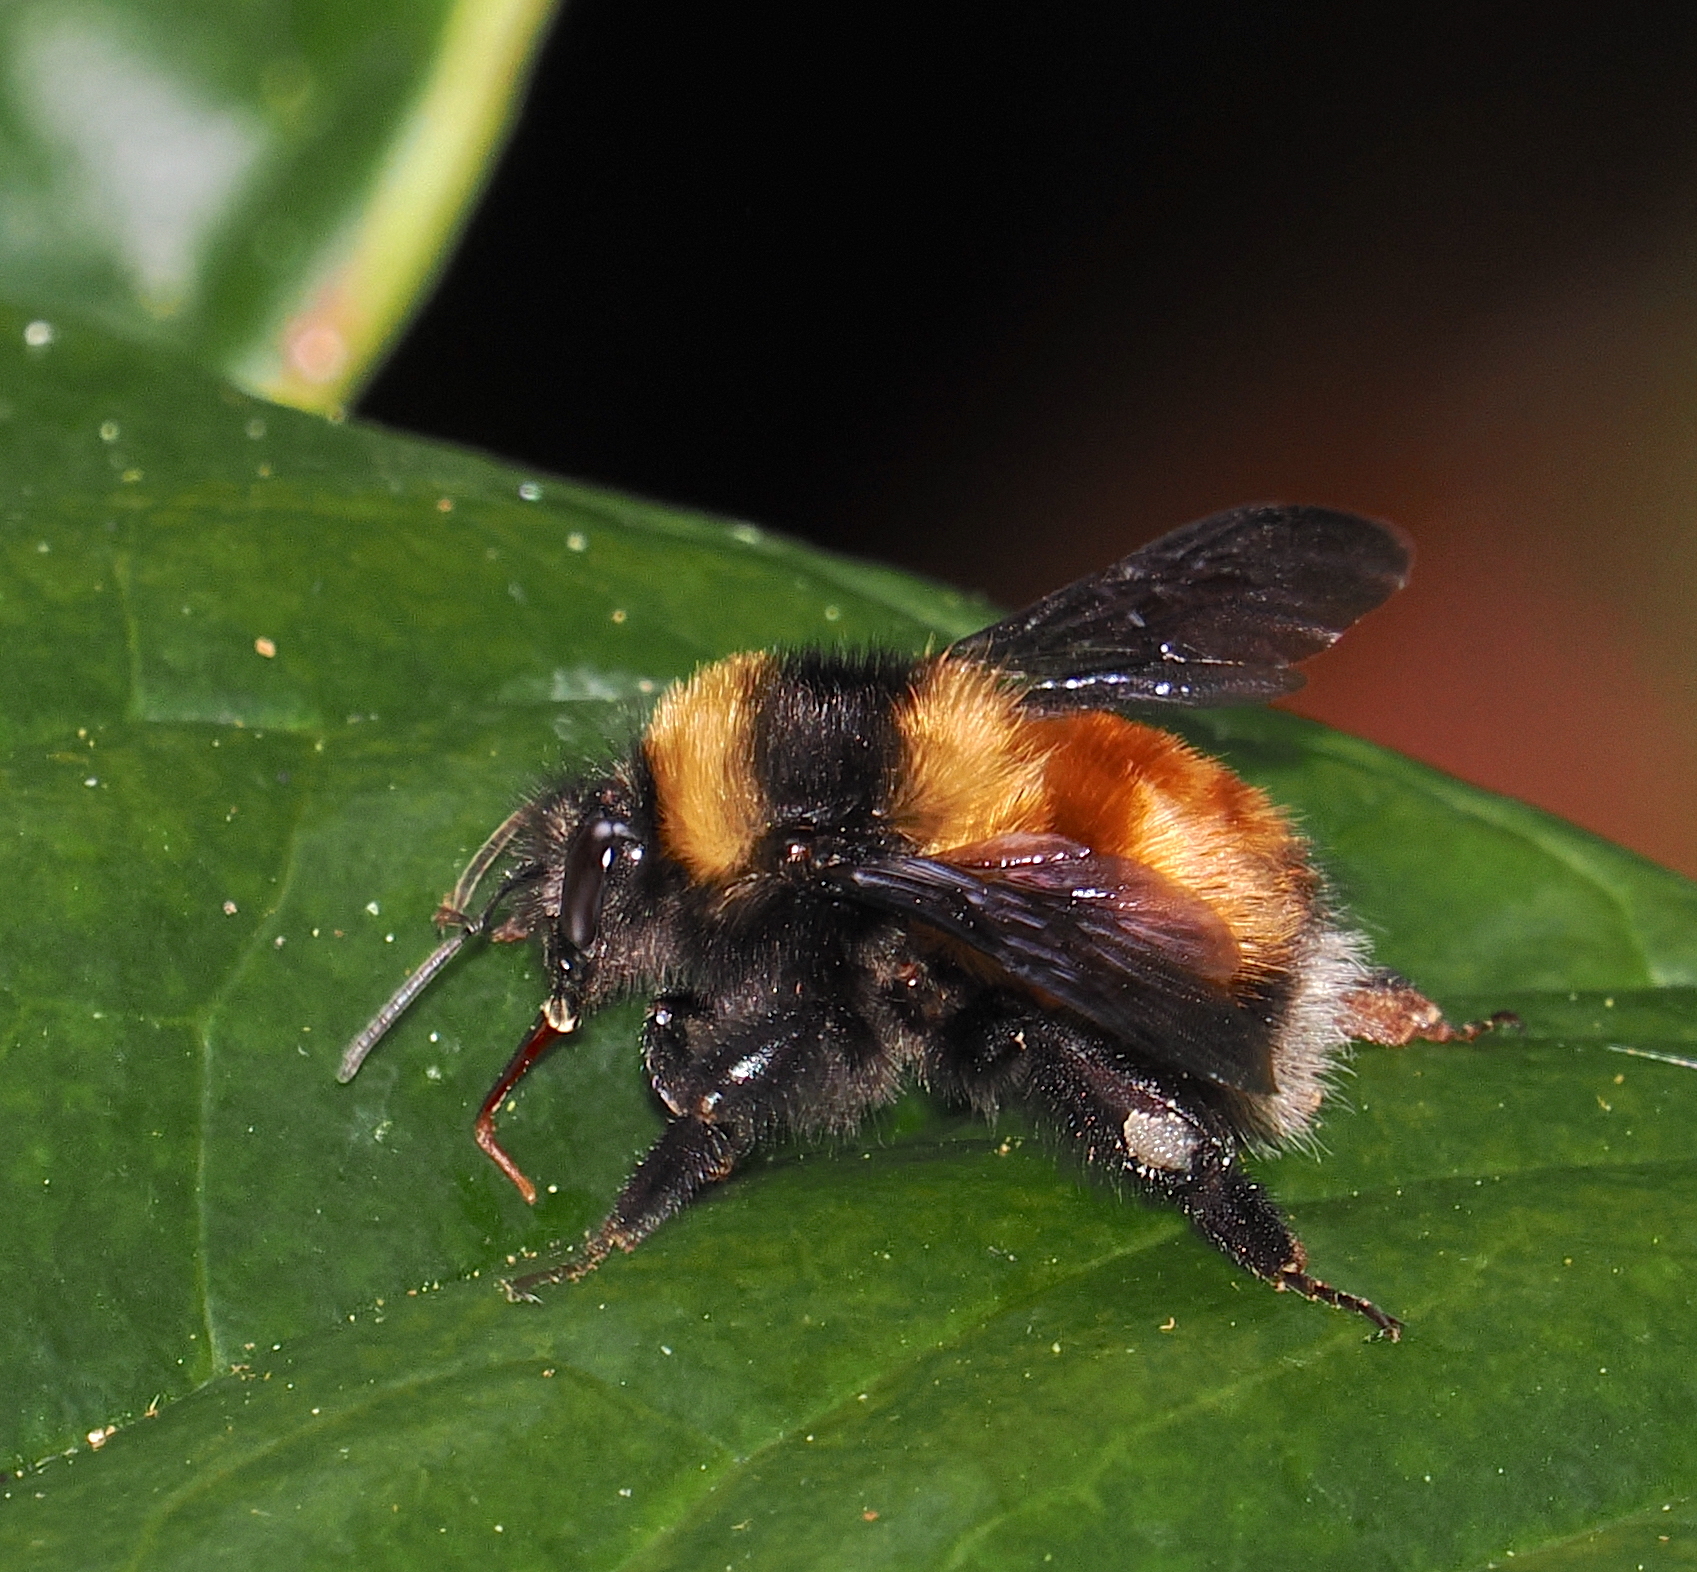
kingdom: Animalia
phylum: Arthropoda
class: Insecta
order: Hymenoptera
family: Apidae
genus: Bombus
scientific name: Bombus robustus
